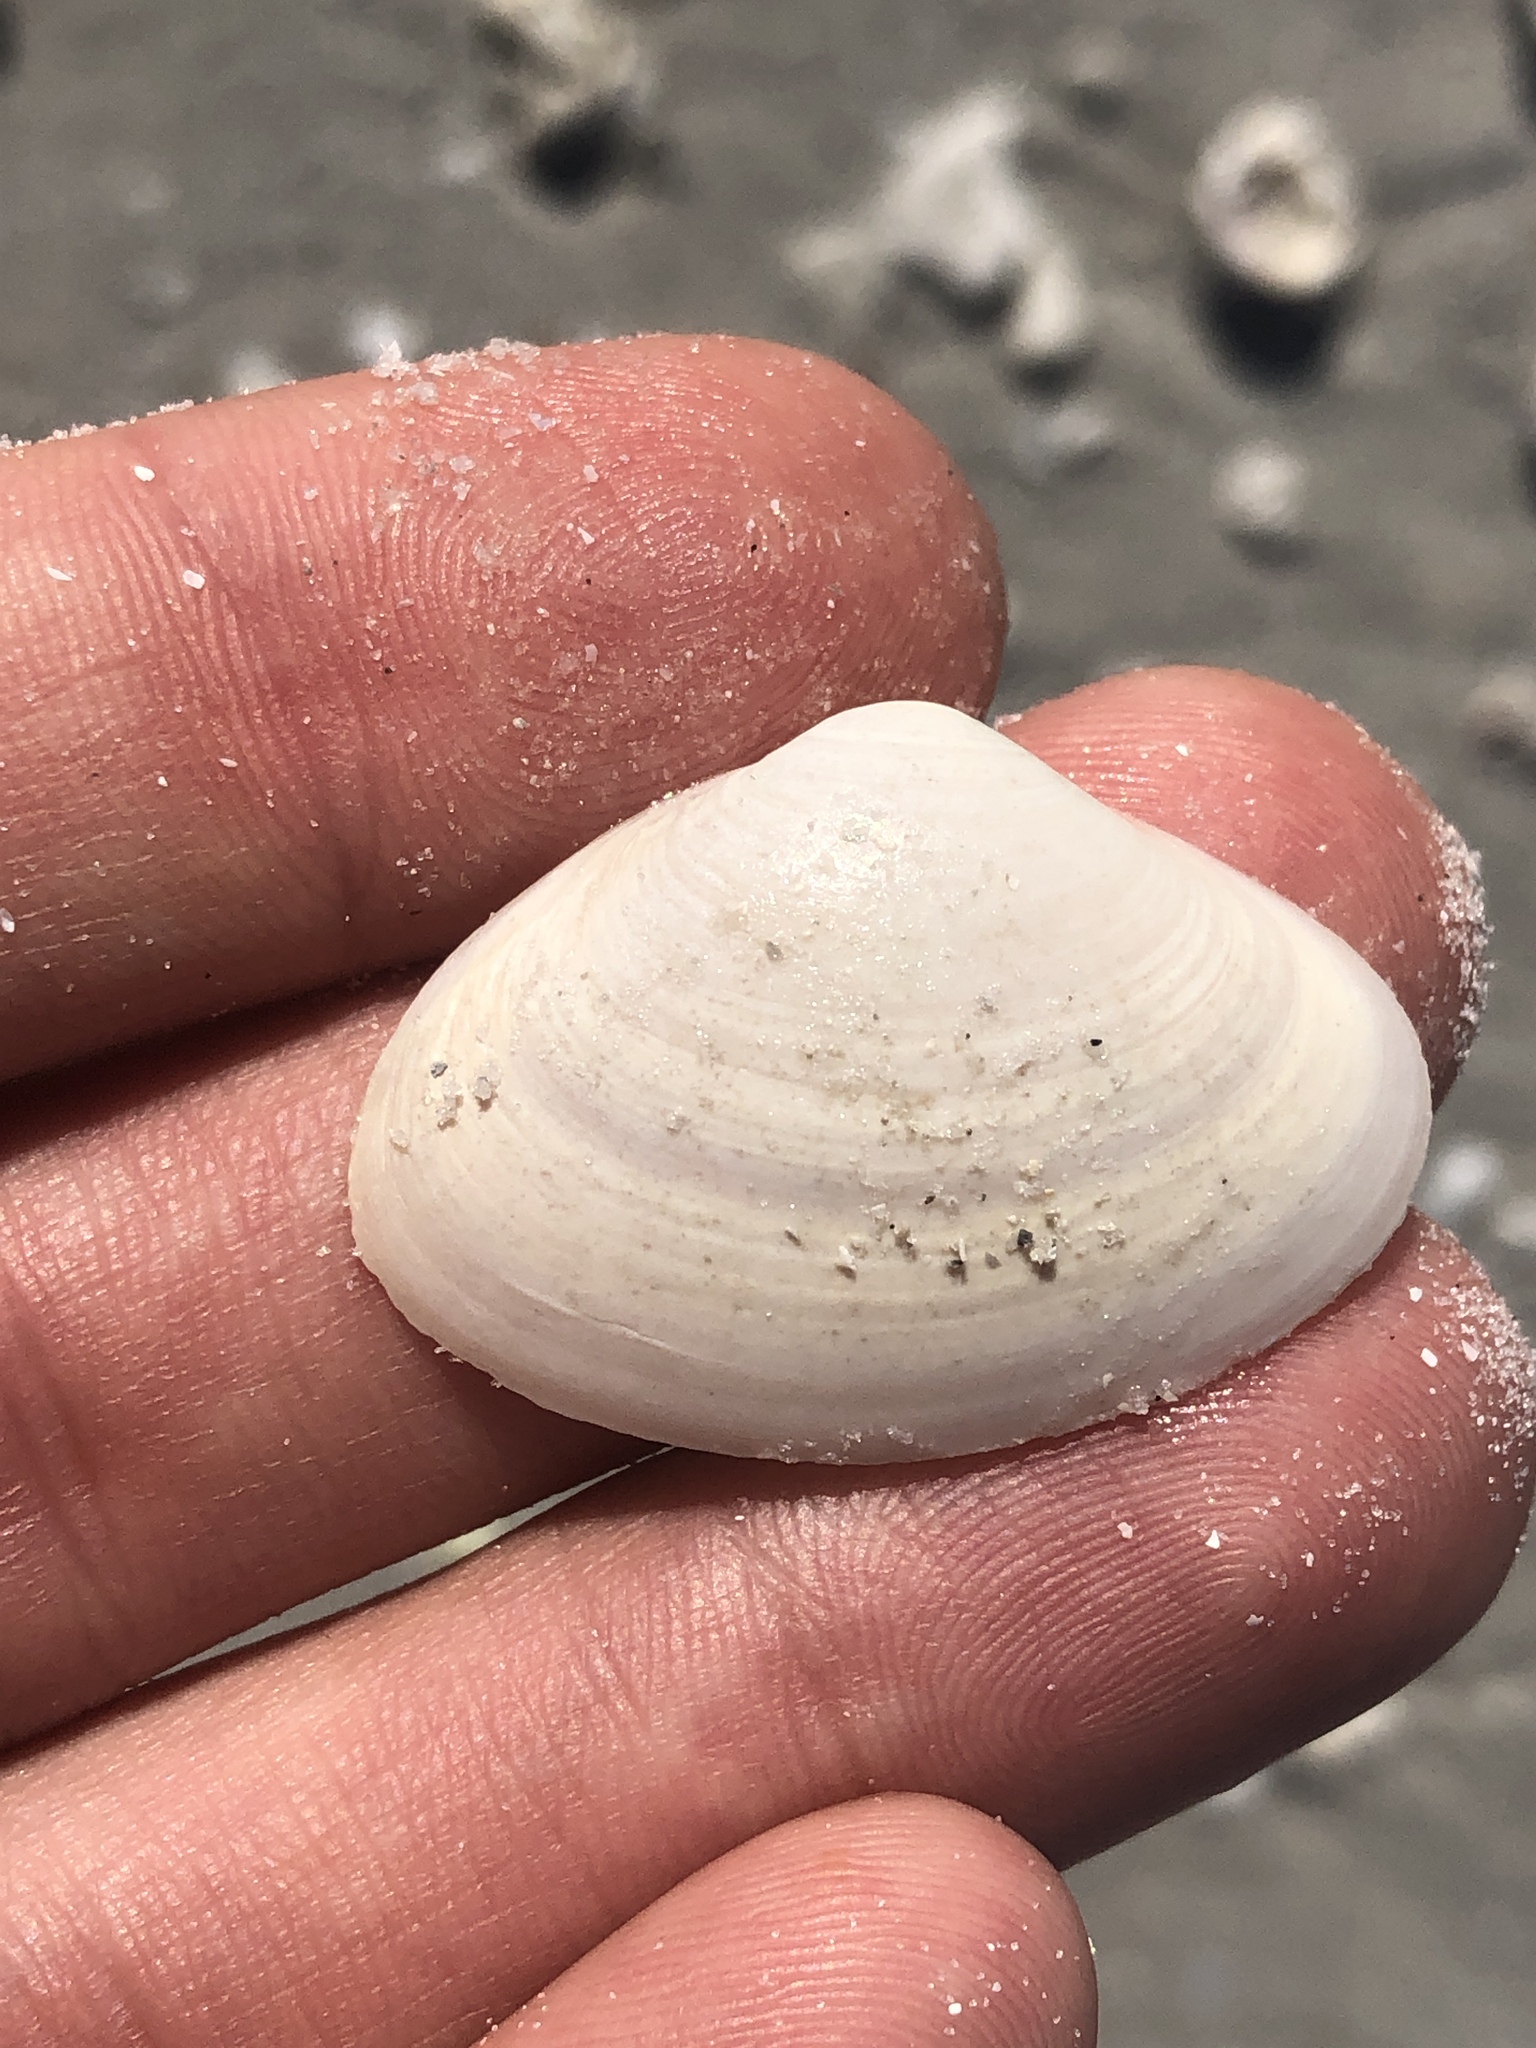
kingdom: Animalia
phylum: Mollusca
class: Bivalvia
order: Venerida
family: Mactridae
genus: Spisula
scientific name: Spisula raveneli
